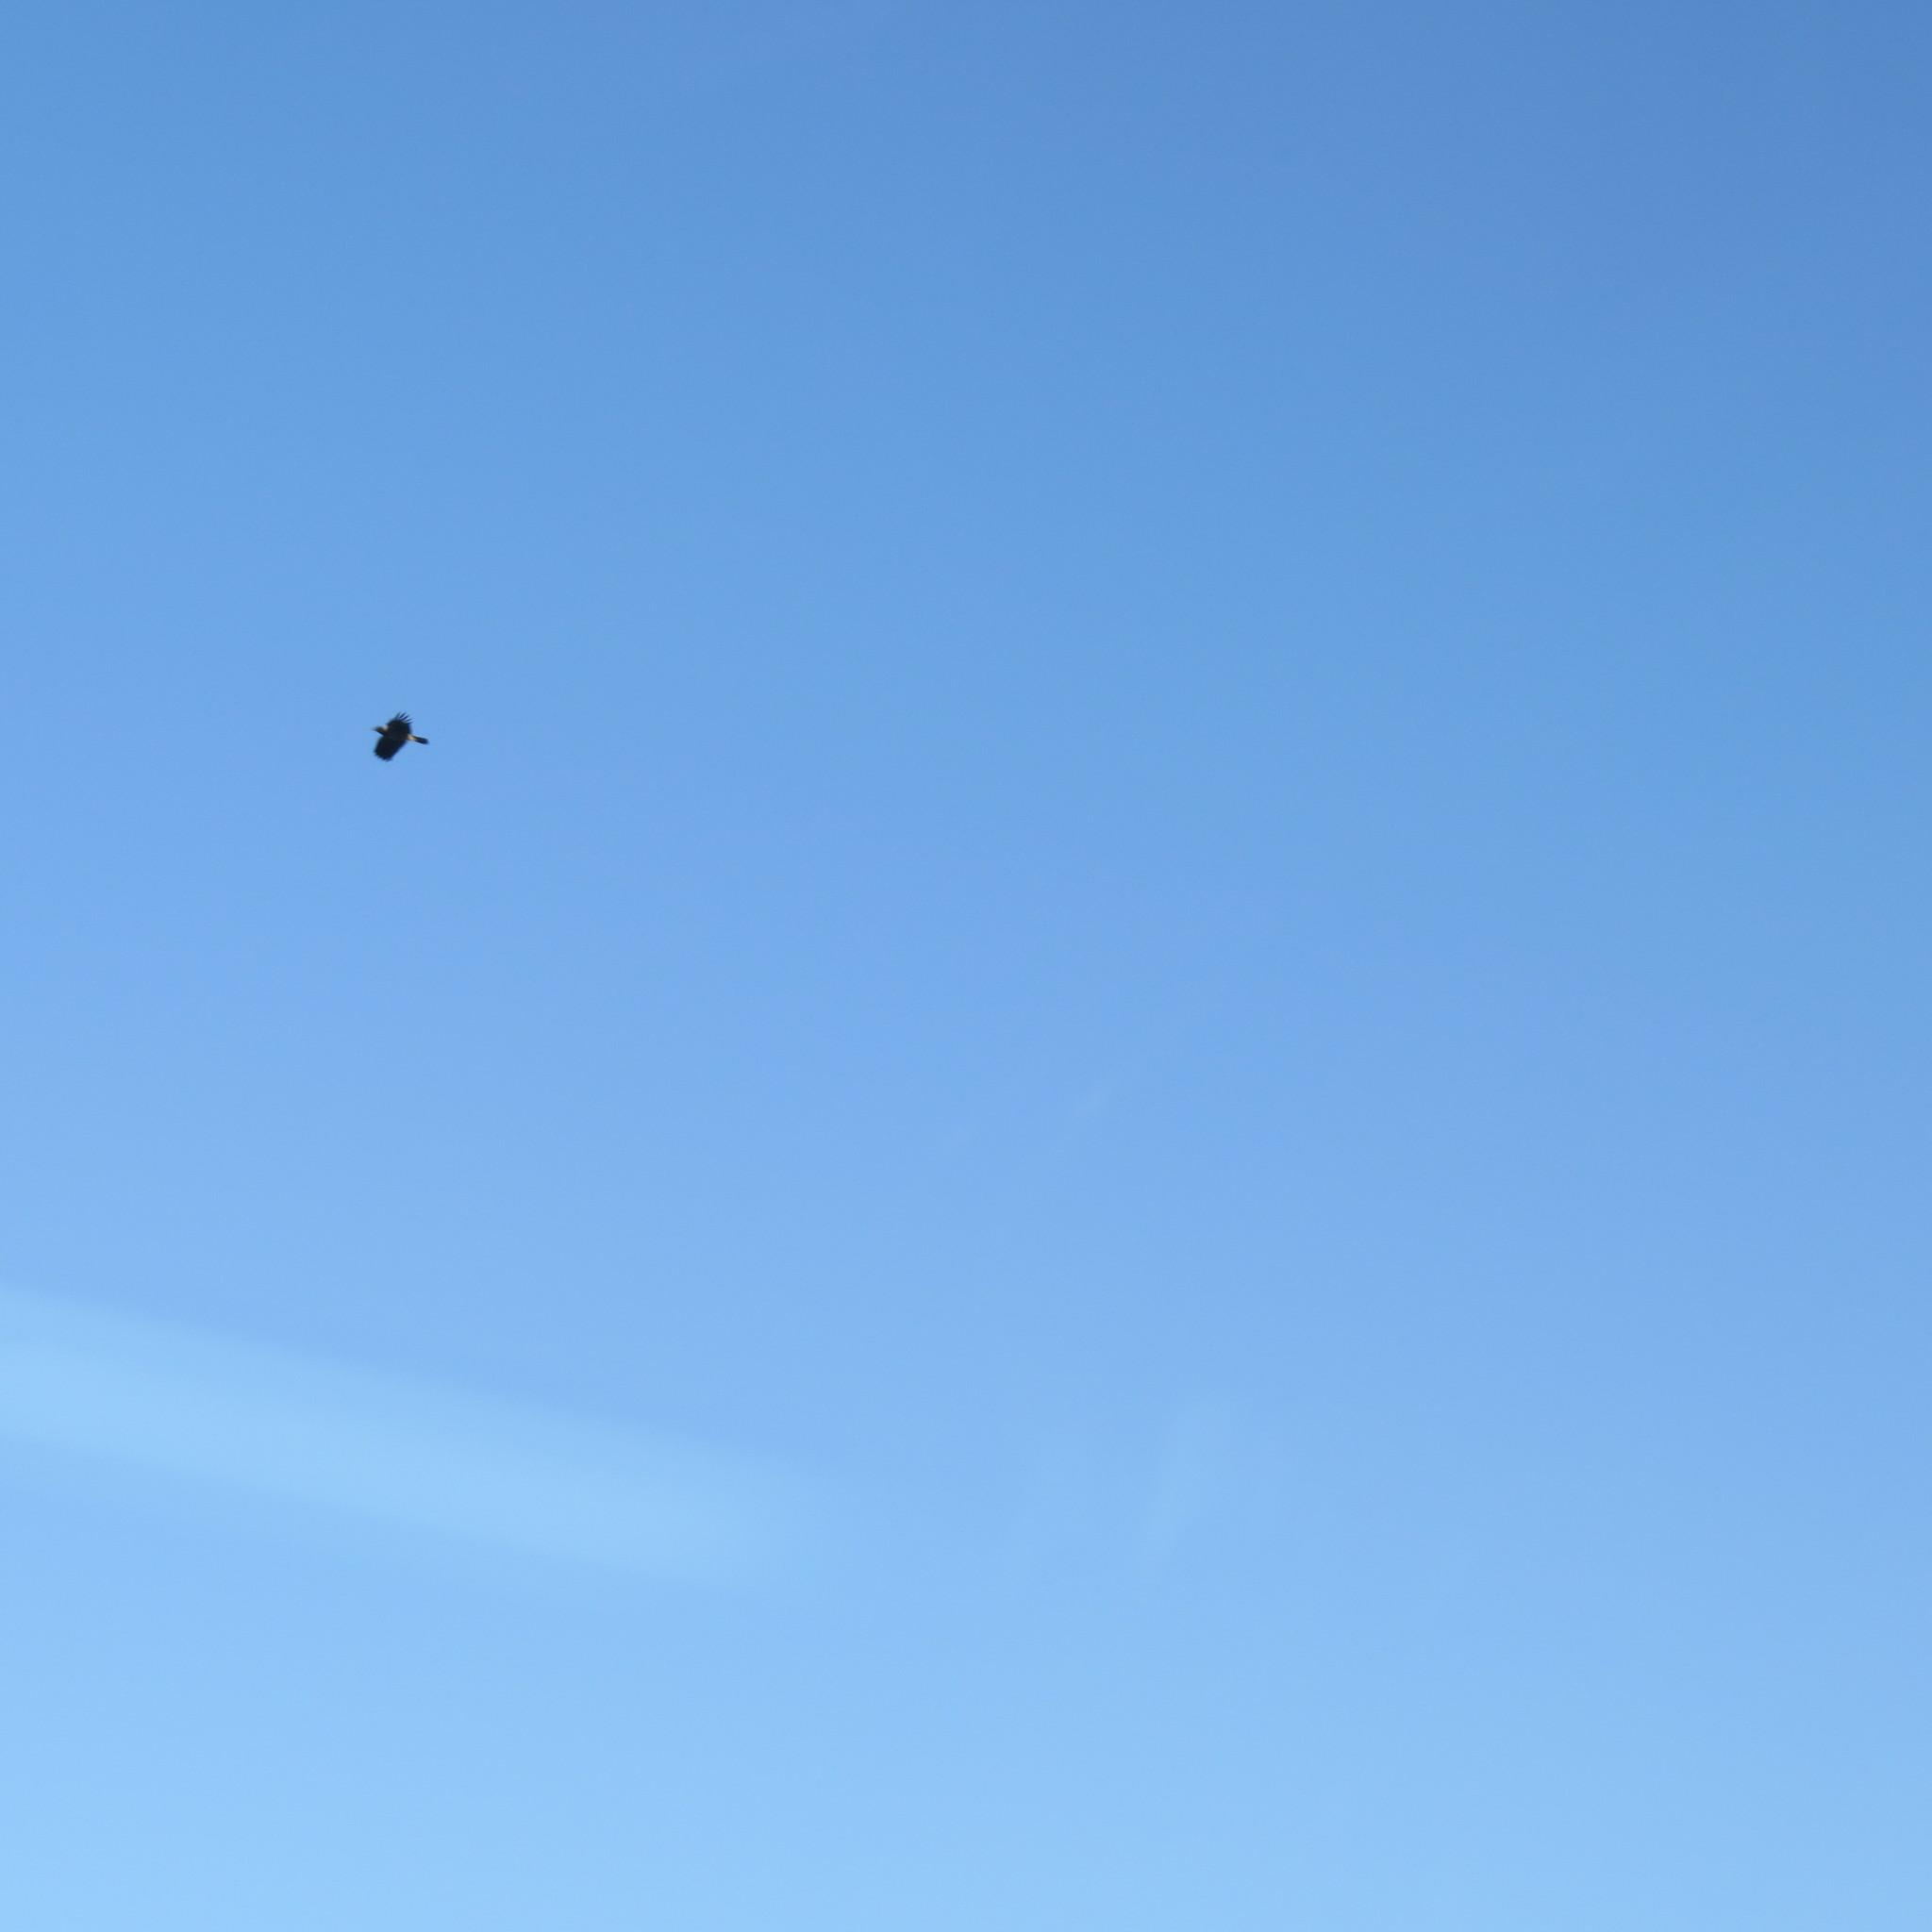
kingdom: Animalia
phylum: Chordata
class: Aves
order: Passeriformes
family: Corvidae
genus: Corvus
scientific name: Corvus cornix
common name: Hooded crow
